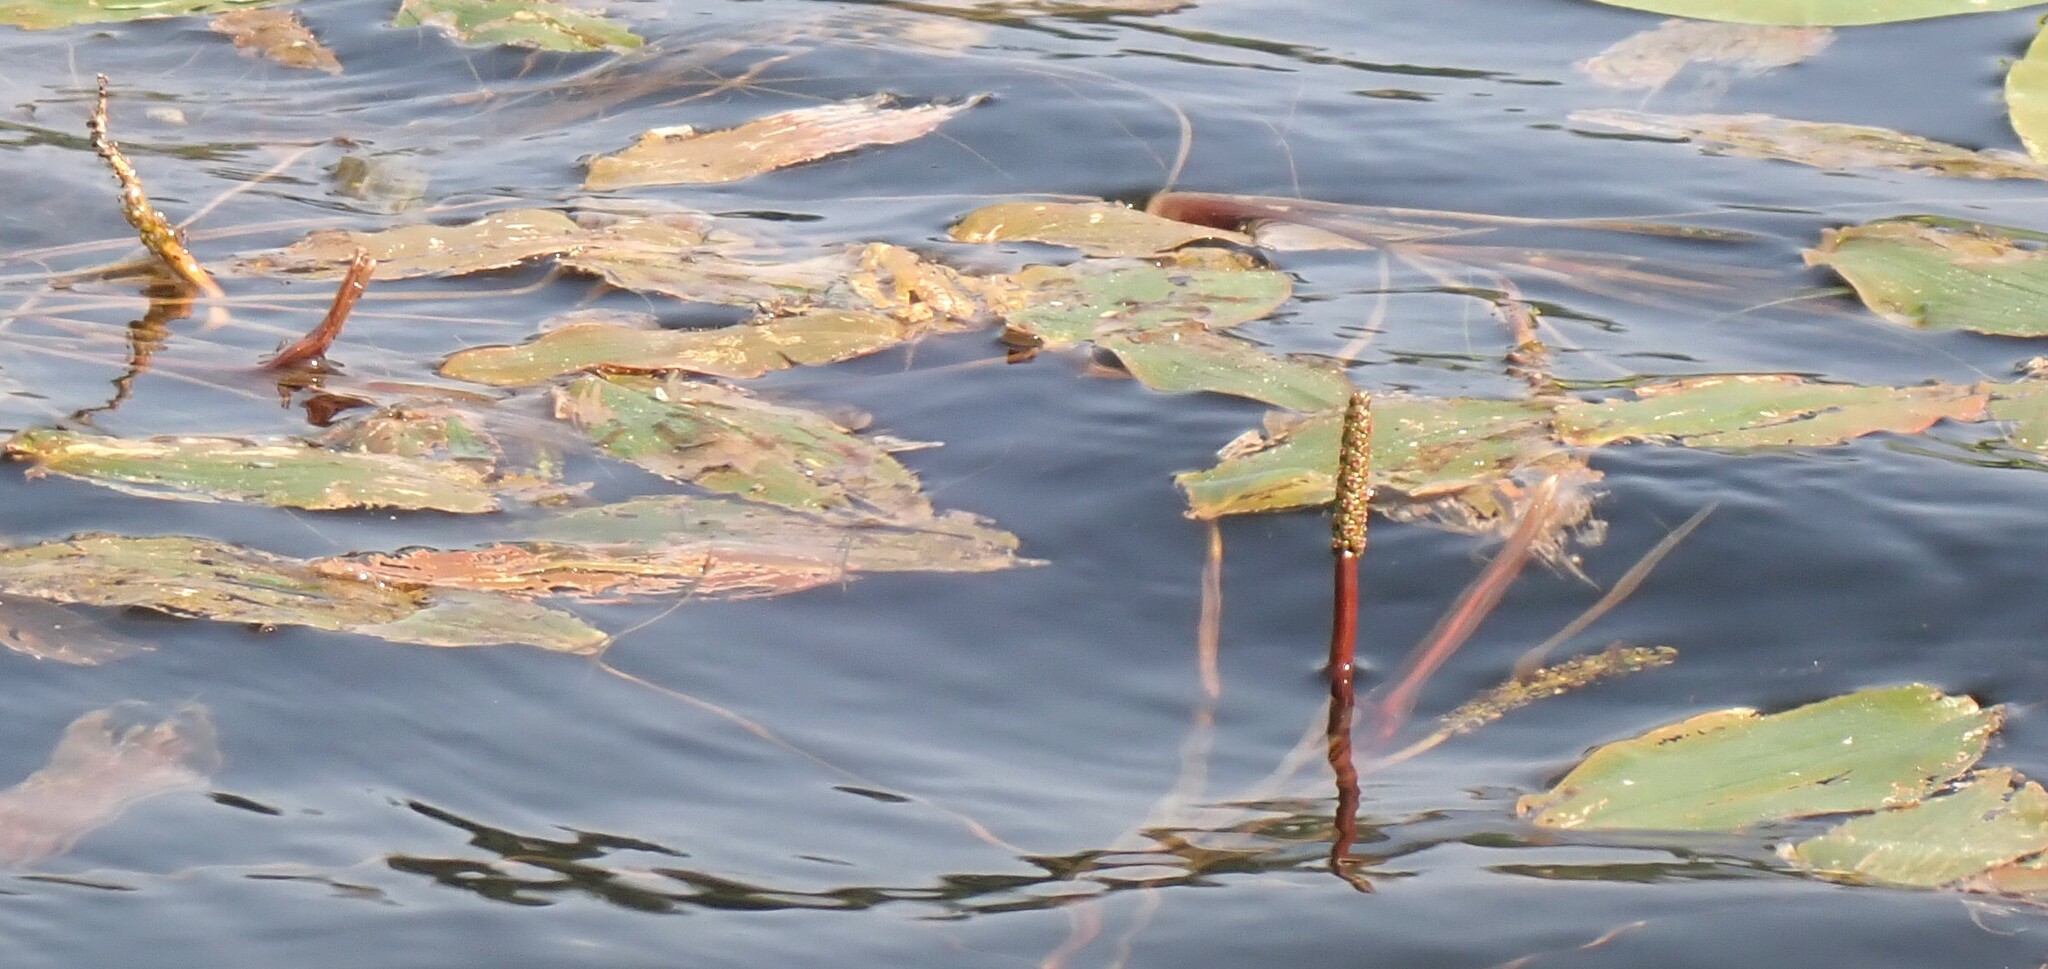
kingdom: Plantae
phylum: Tracheophyta
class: Liliopsida
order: Alismatales
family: Potamogetonaceae
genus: Potamogeton
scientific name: Potamogeton natans
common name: Broad-leaved pondweed
